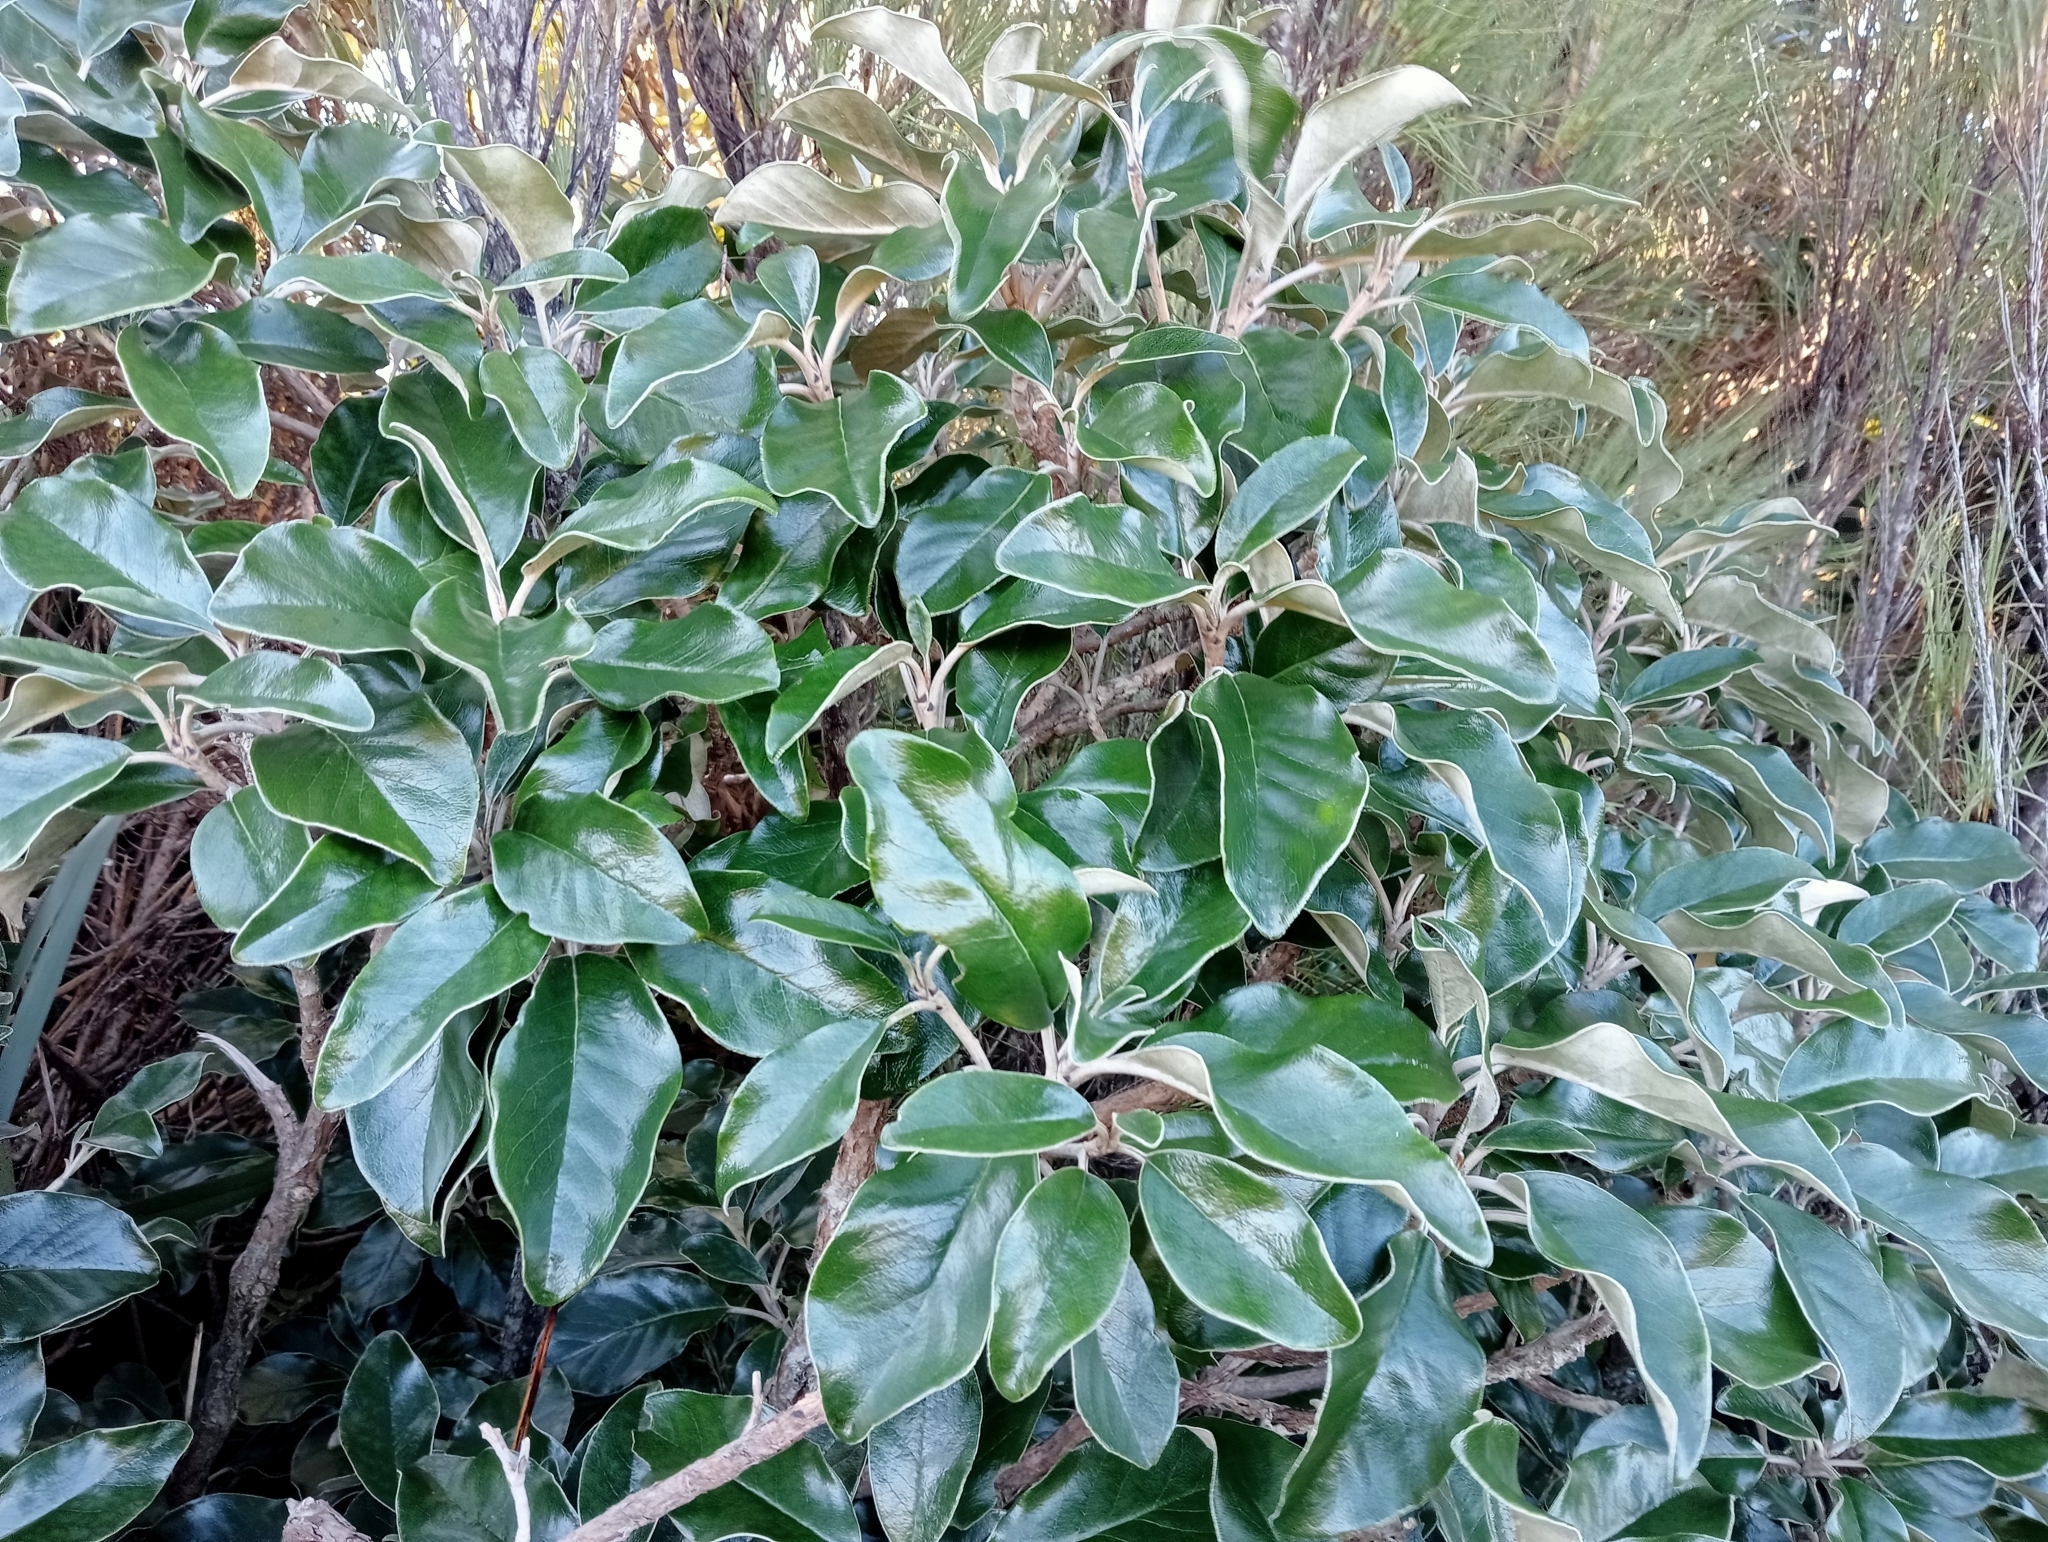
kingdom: Plantae
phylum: Tracheophyta
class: Magnoliopsida
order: Asterales
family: Asteraceae
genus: Brachyglottis
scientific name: Brachyglottis buchananii
